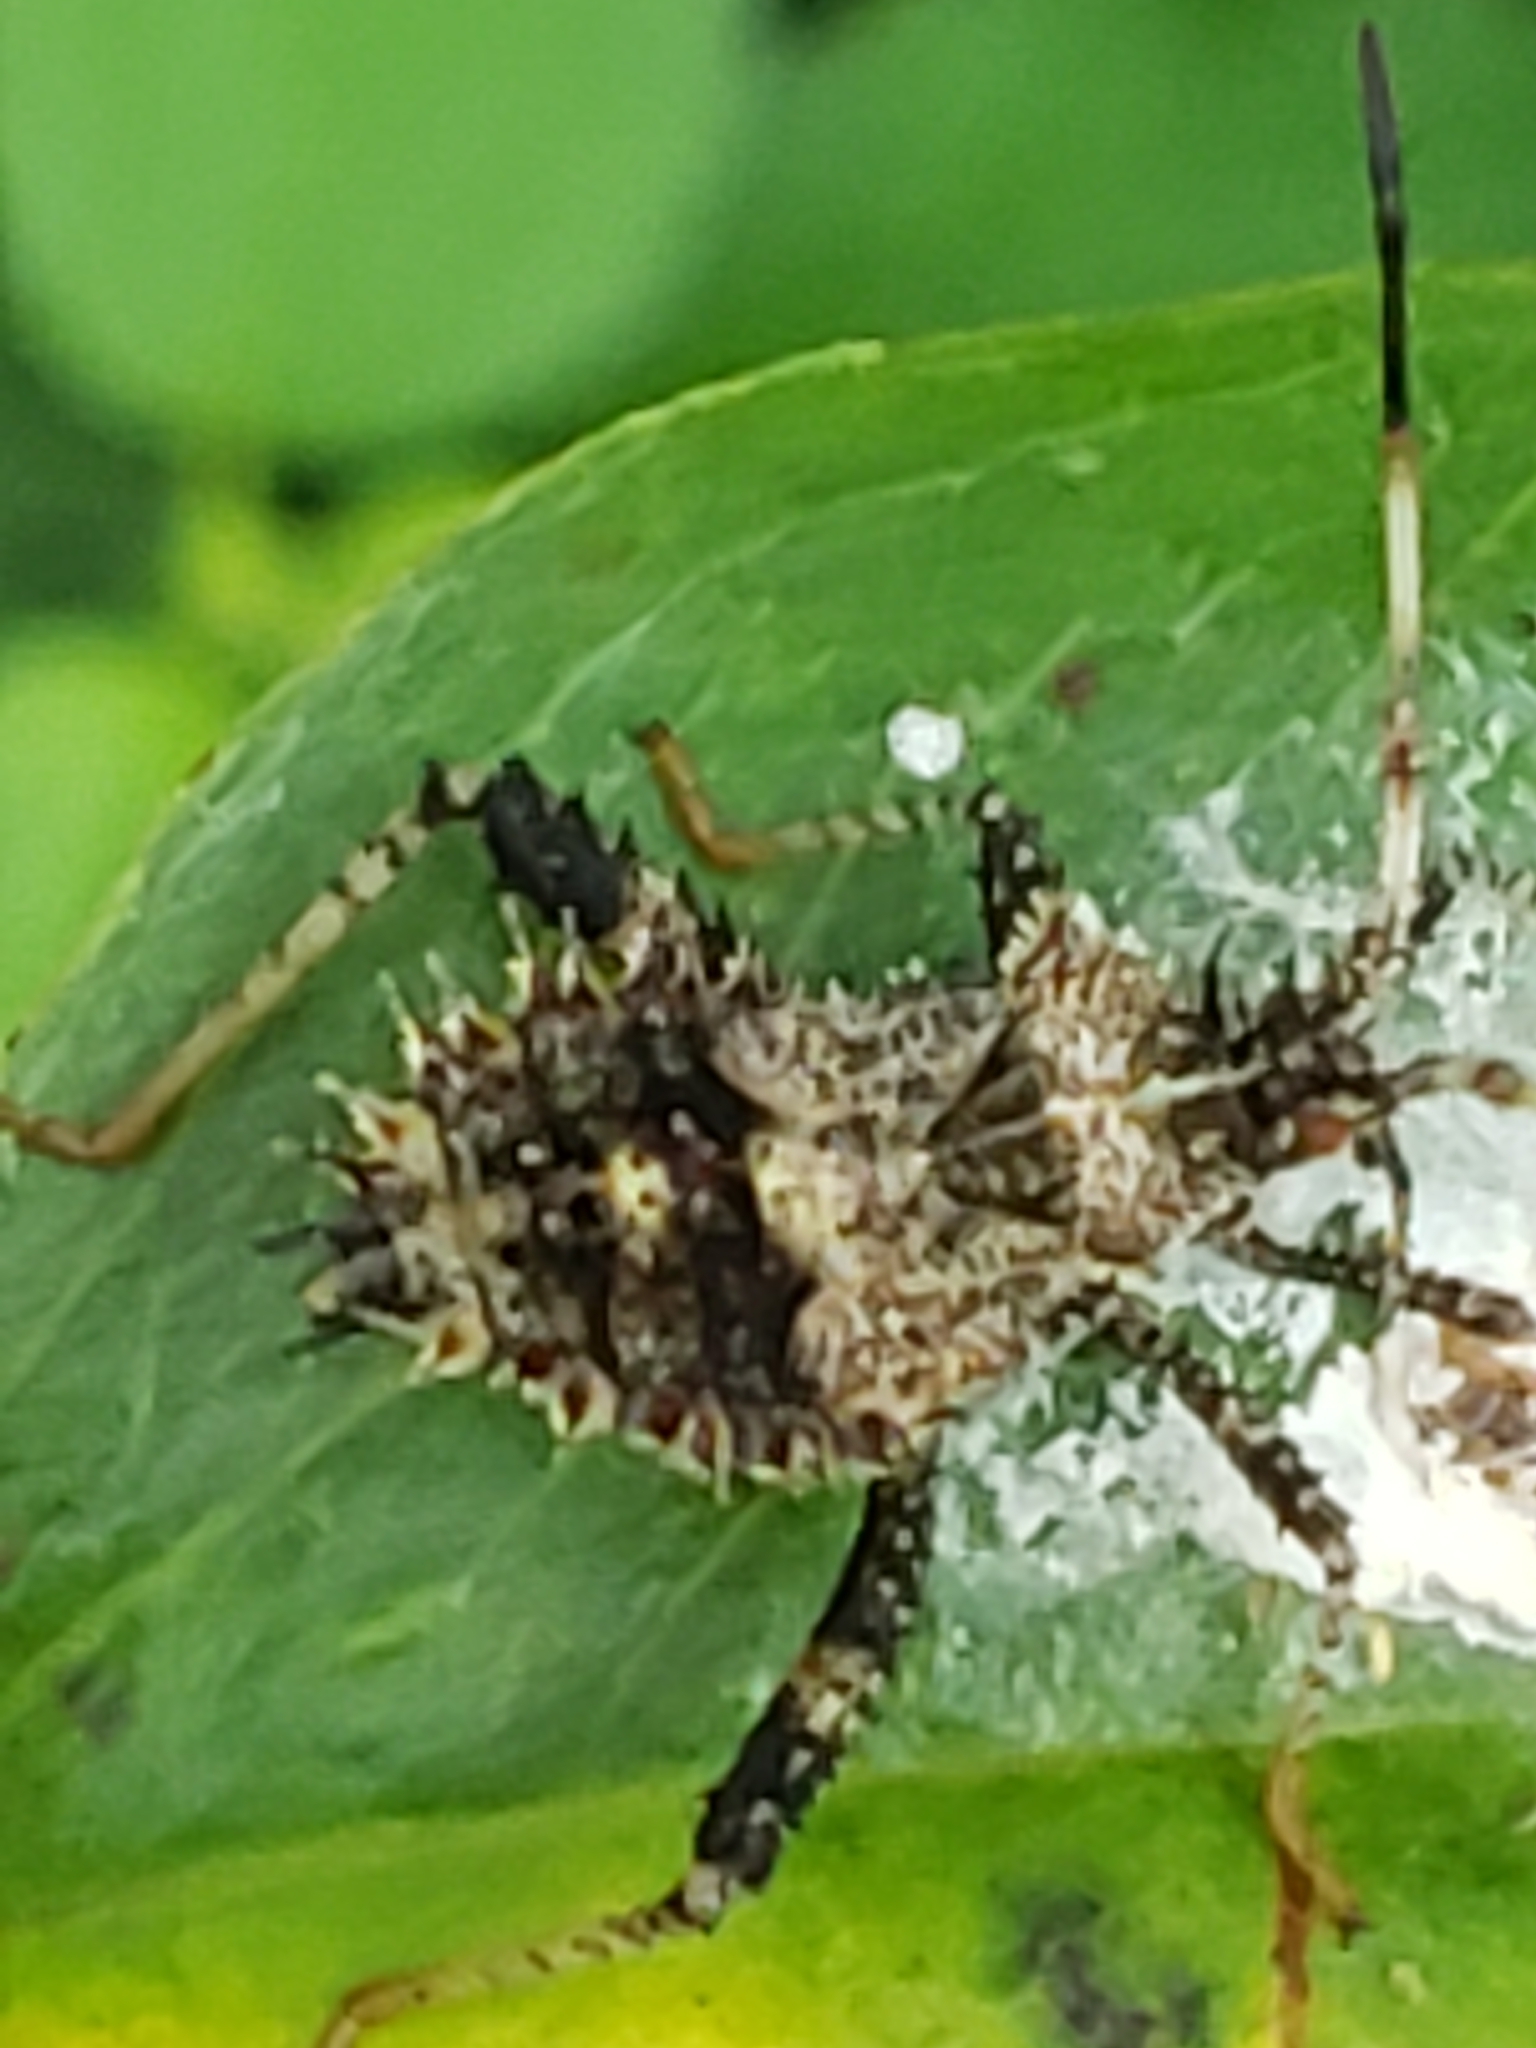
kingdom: Animalia
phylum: Arthropoda
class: Insecta
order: Hemiptera
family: Coreidae
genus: Euthochtha
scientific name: Euthochtha galeator
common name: Helmeted squash bug
